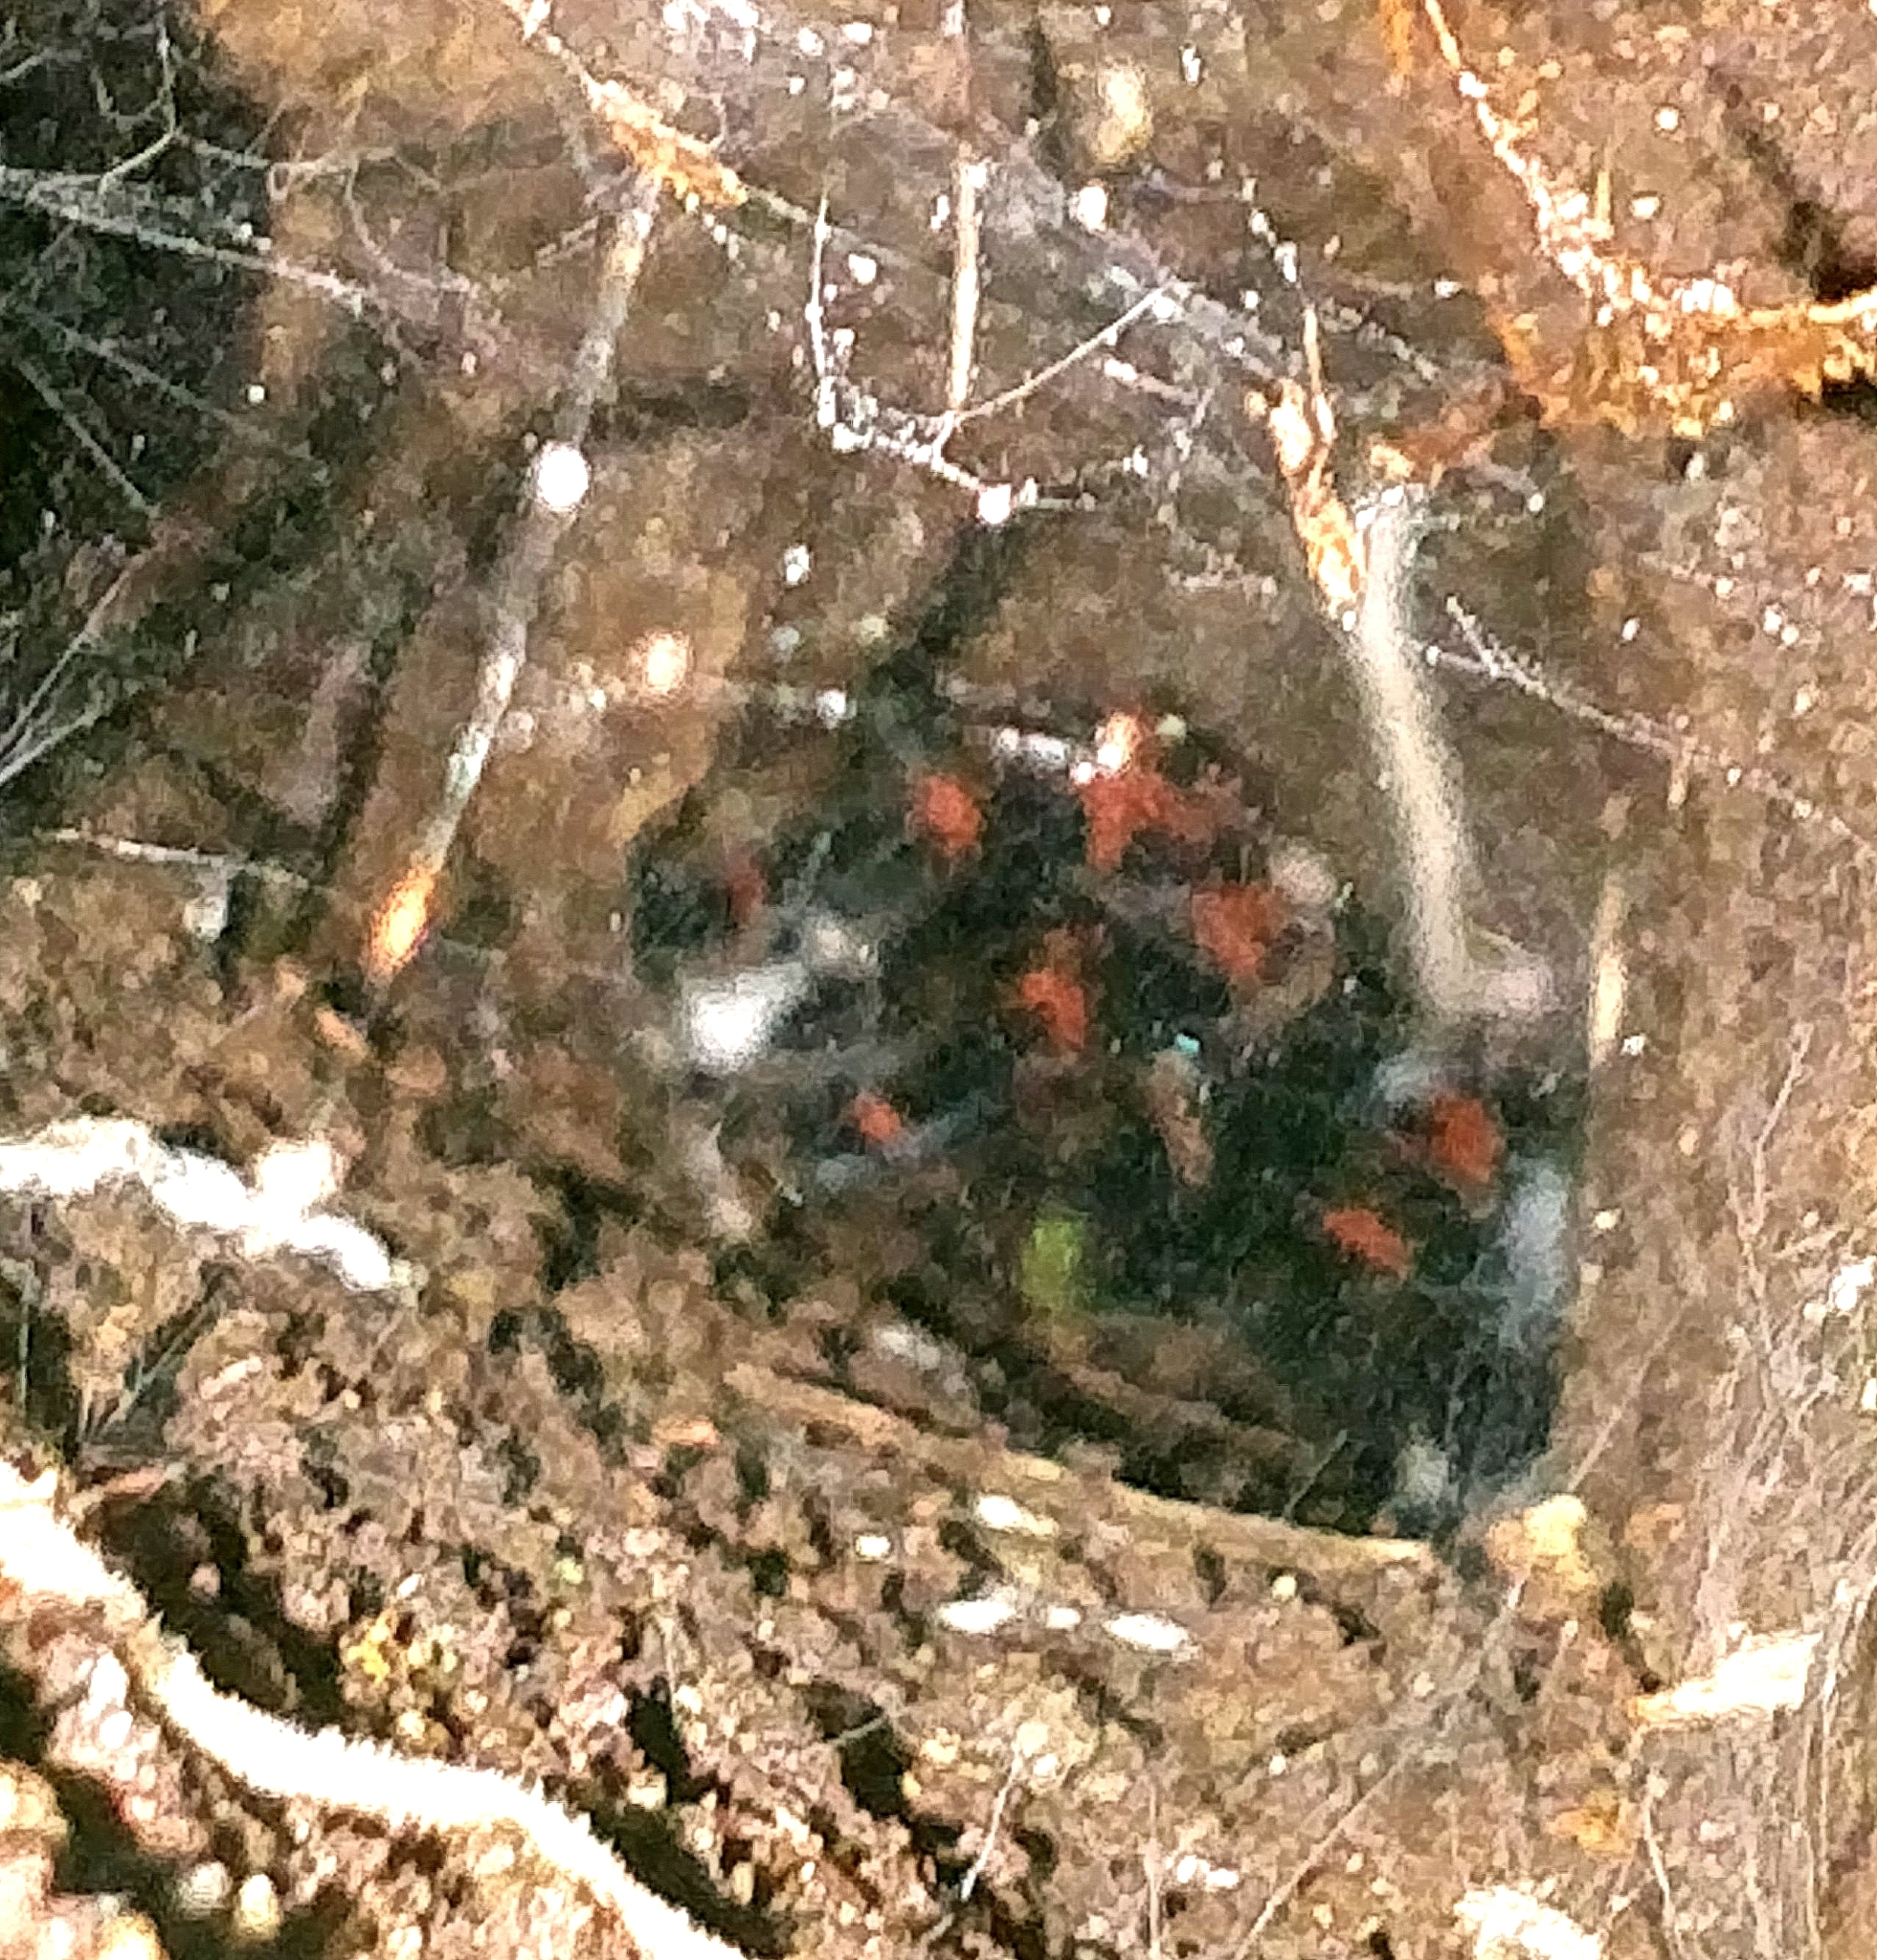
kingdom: Animalia
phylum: Arthropoda
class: Arachnida
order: Araneae
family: Theraphosidae
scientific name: Theraphosidae
